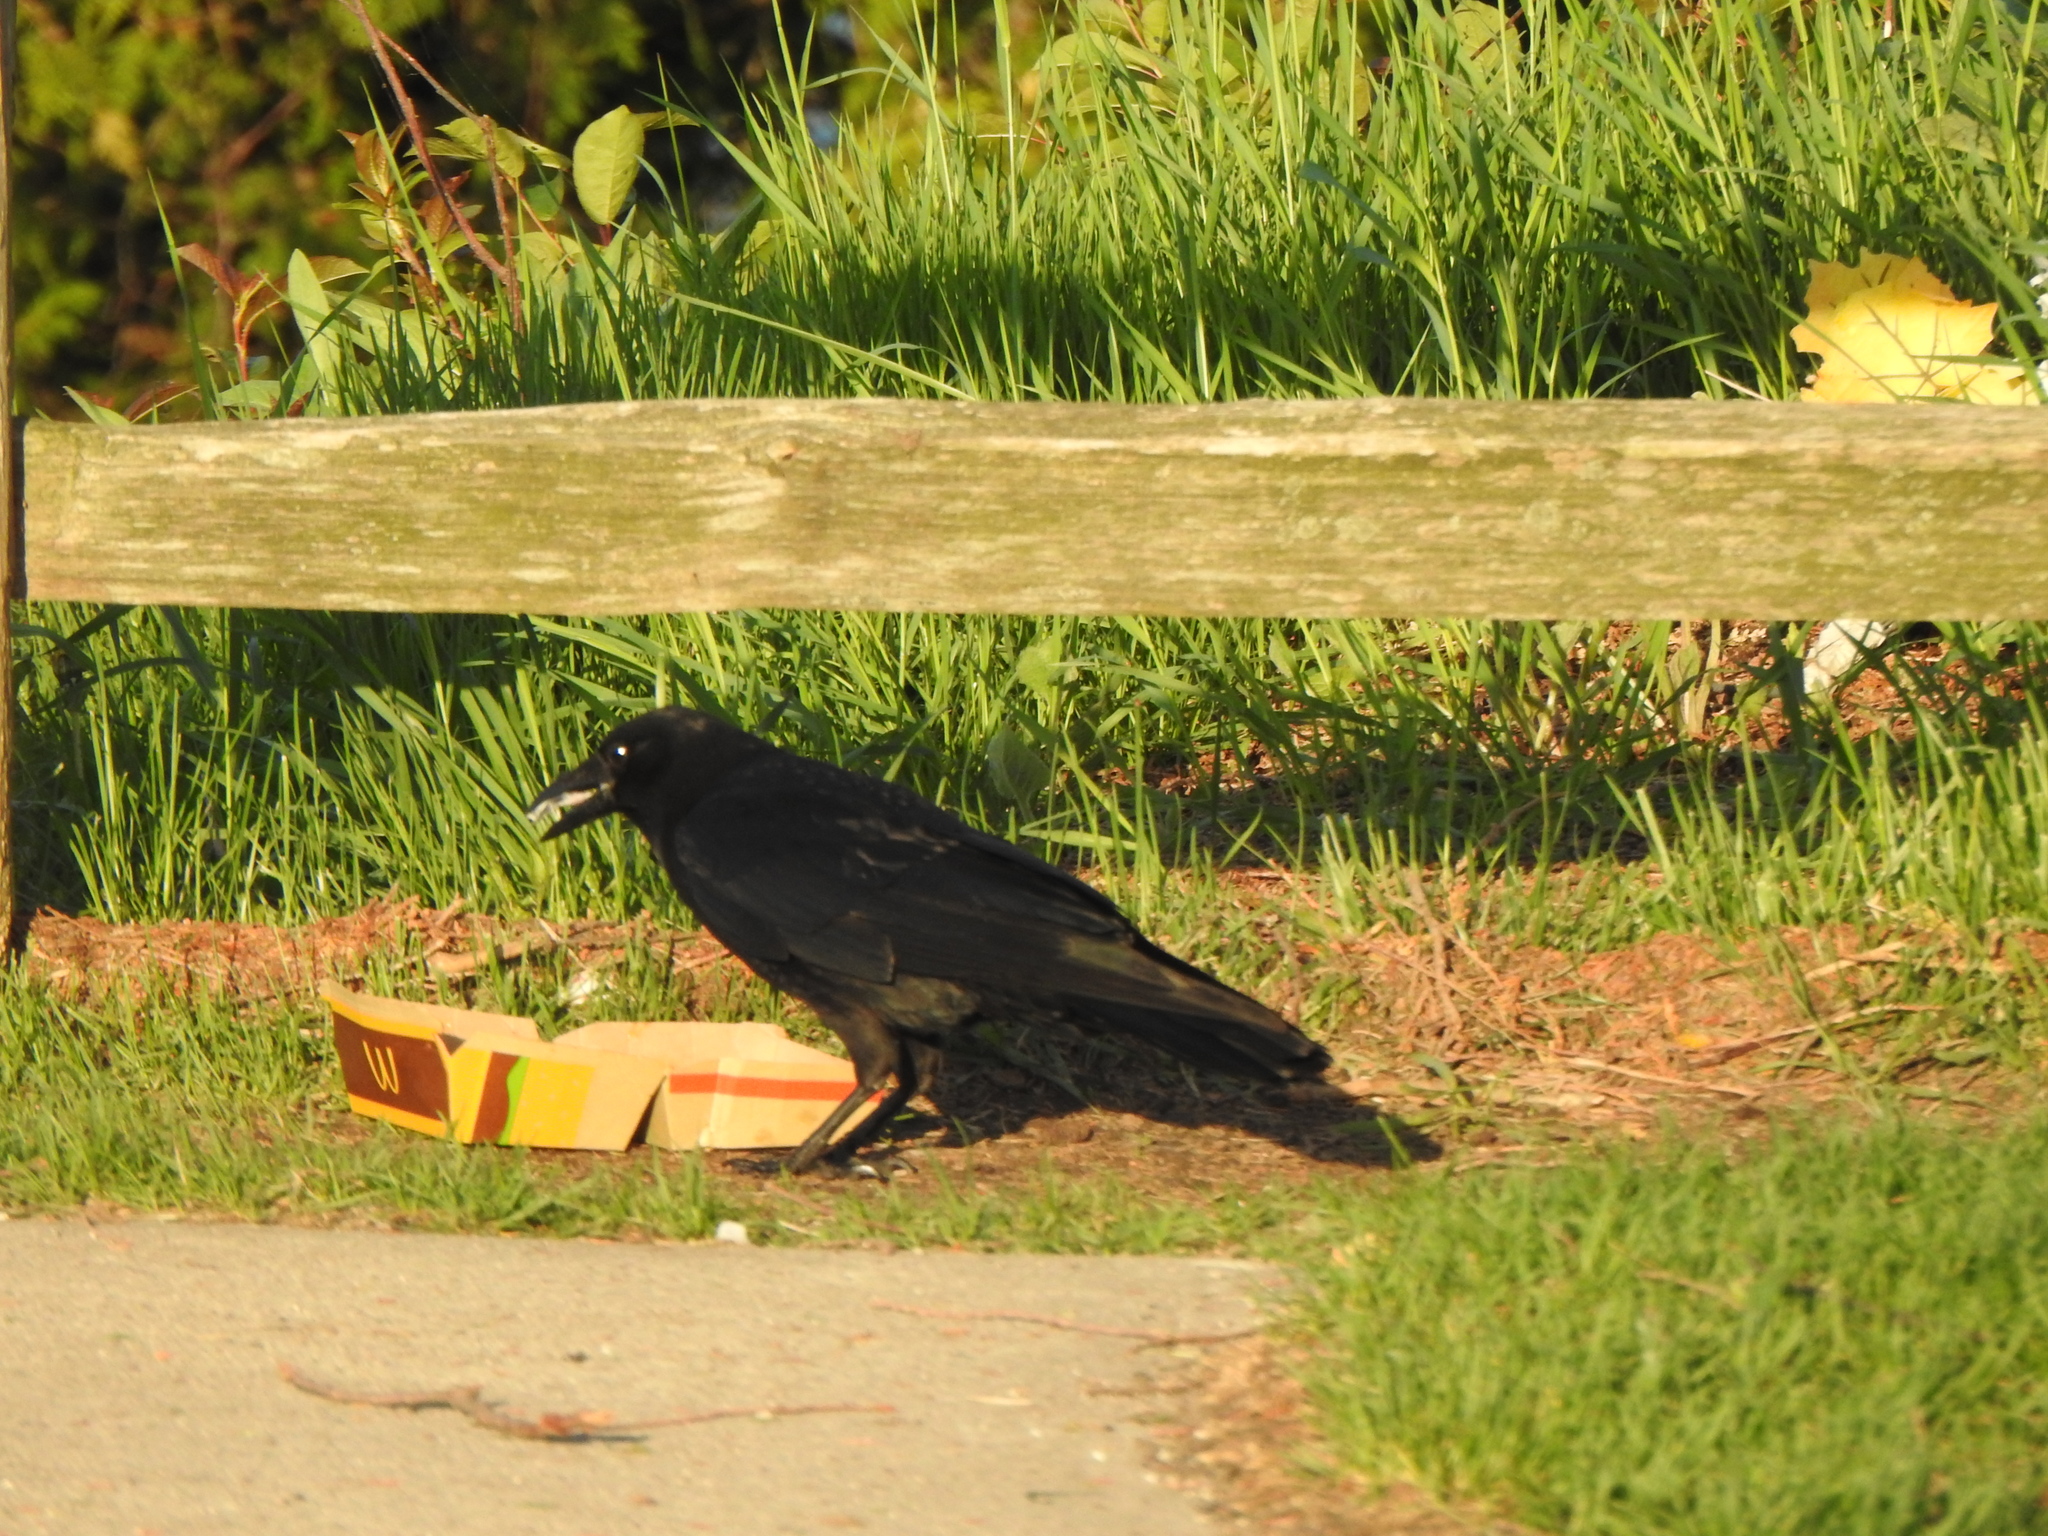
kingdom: Animalia
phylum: Chordata
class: Aves
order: Passeriformes
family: Corvidae
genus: Corvus
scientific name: Corvus brachyrhynchos
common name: American crow
